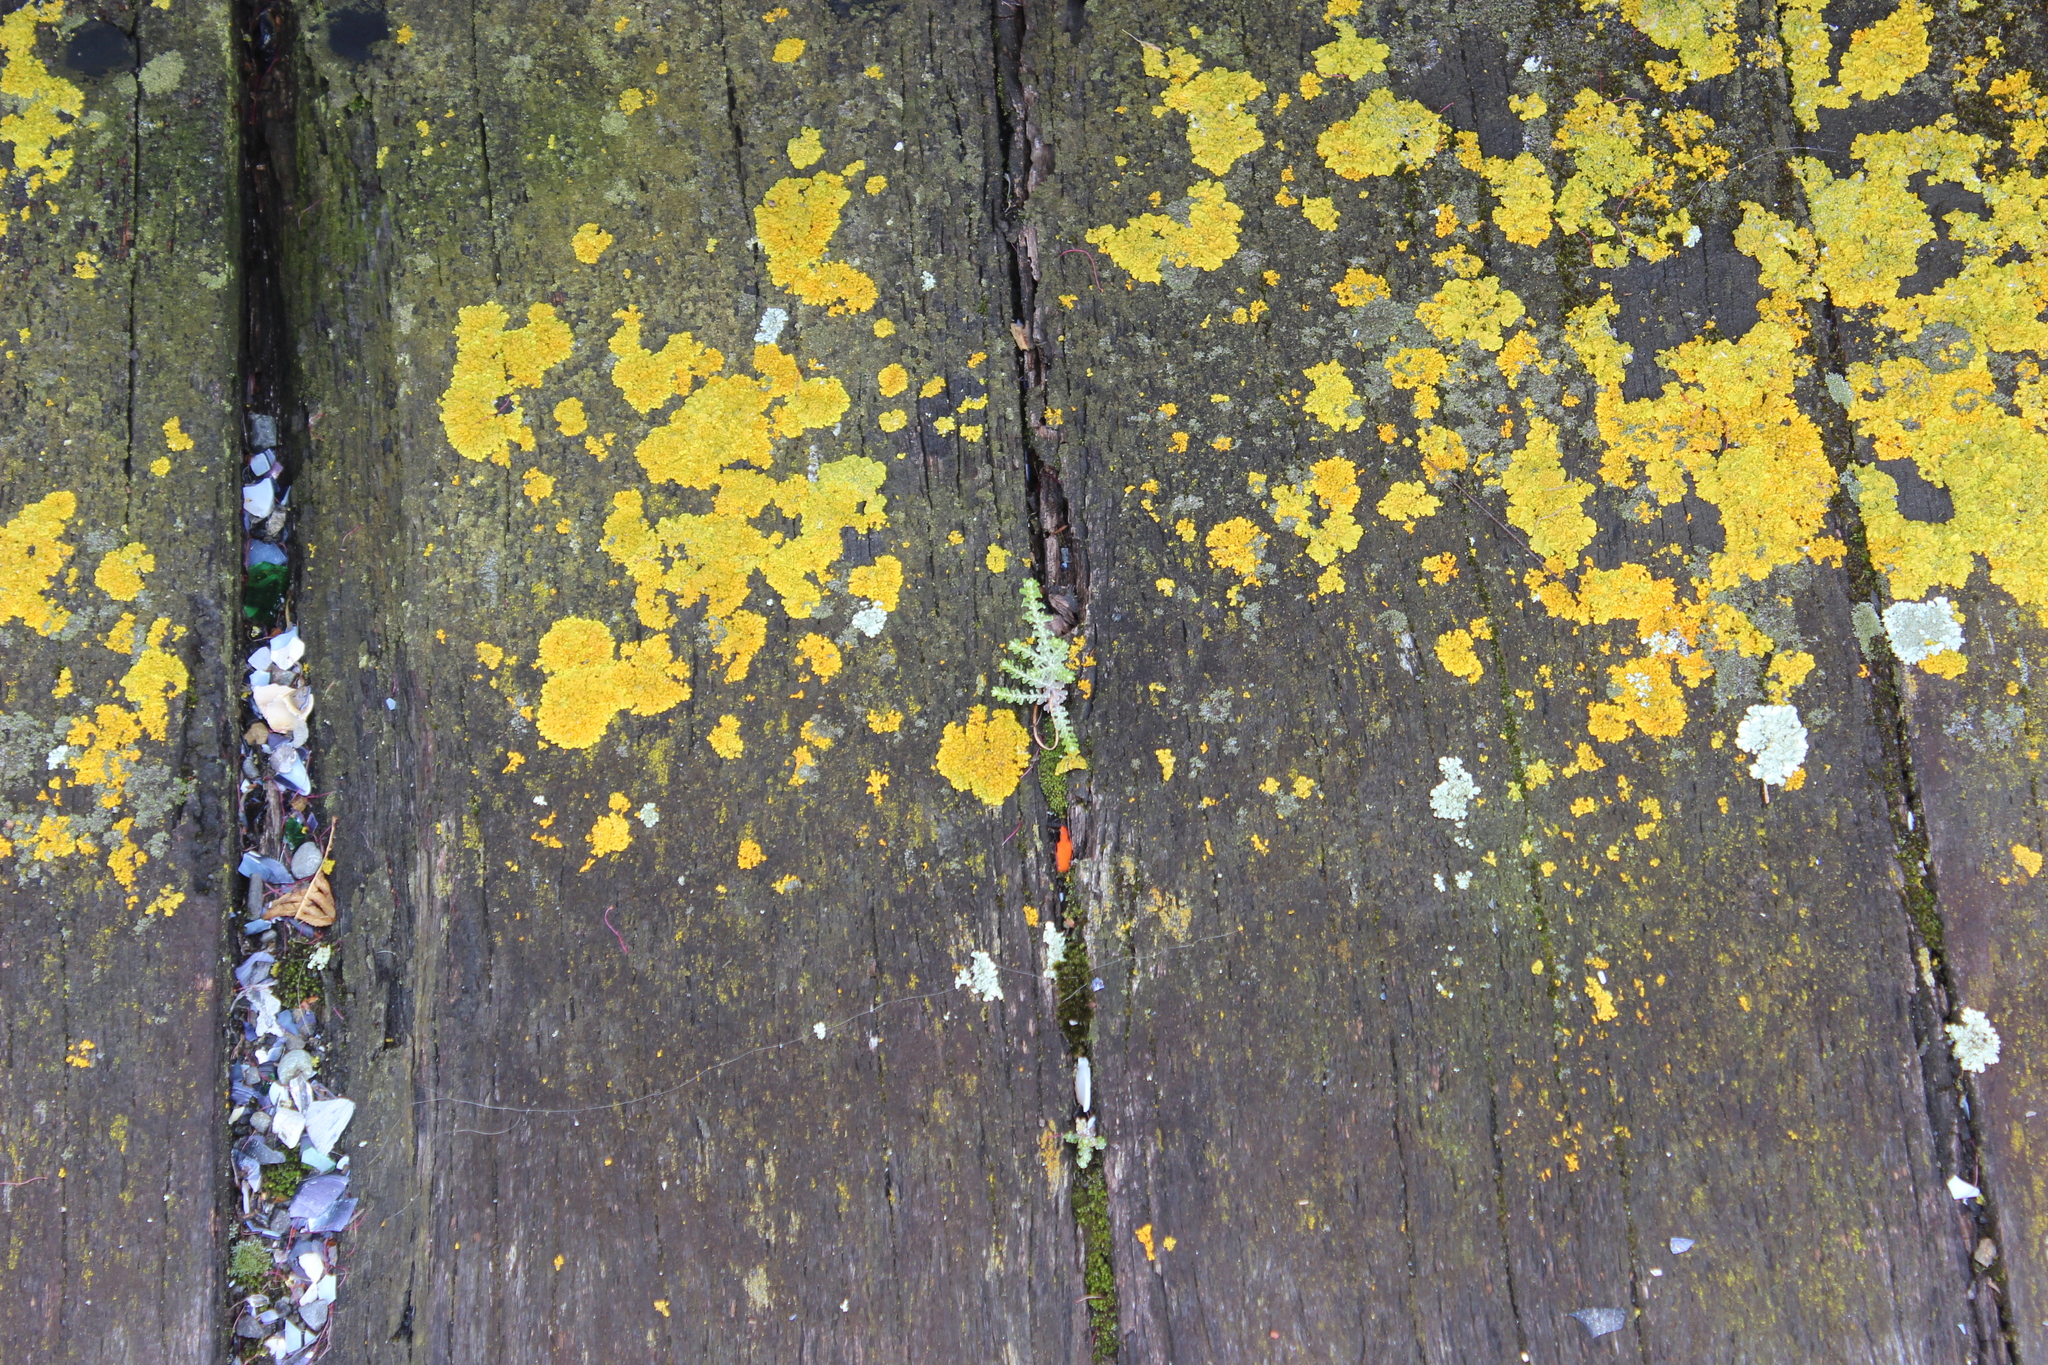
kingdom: Plantae
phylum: Tracheophyta
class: Magnoliopsida
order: Asterales
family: Asteraceae
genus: Ozothamnus
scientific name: Ozothamnus leptophyllus
